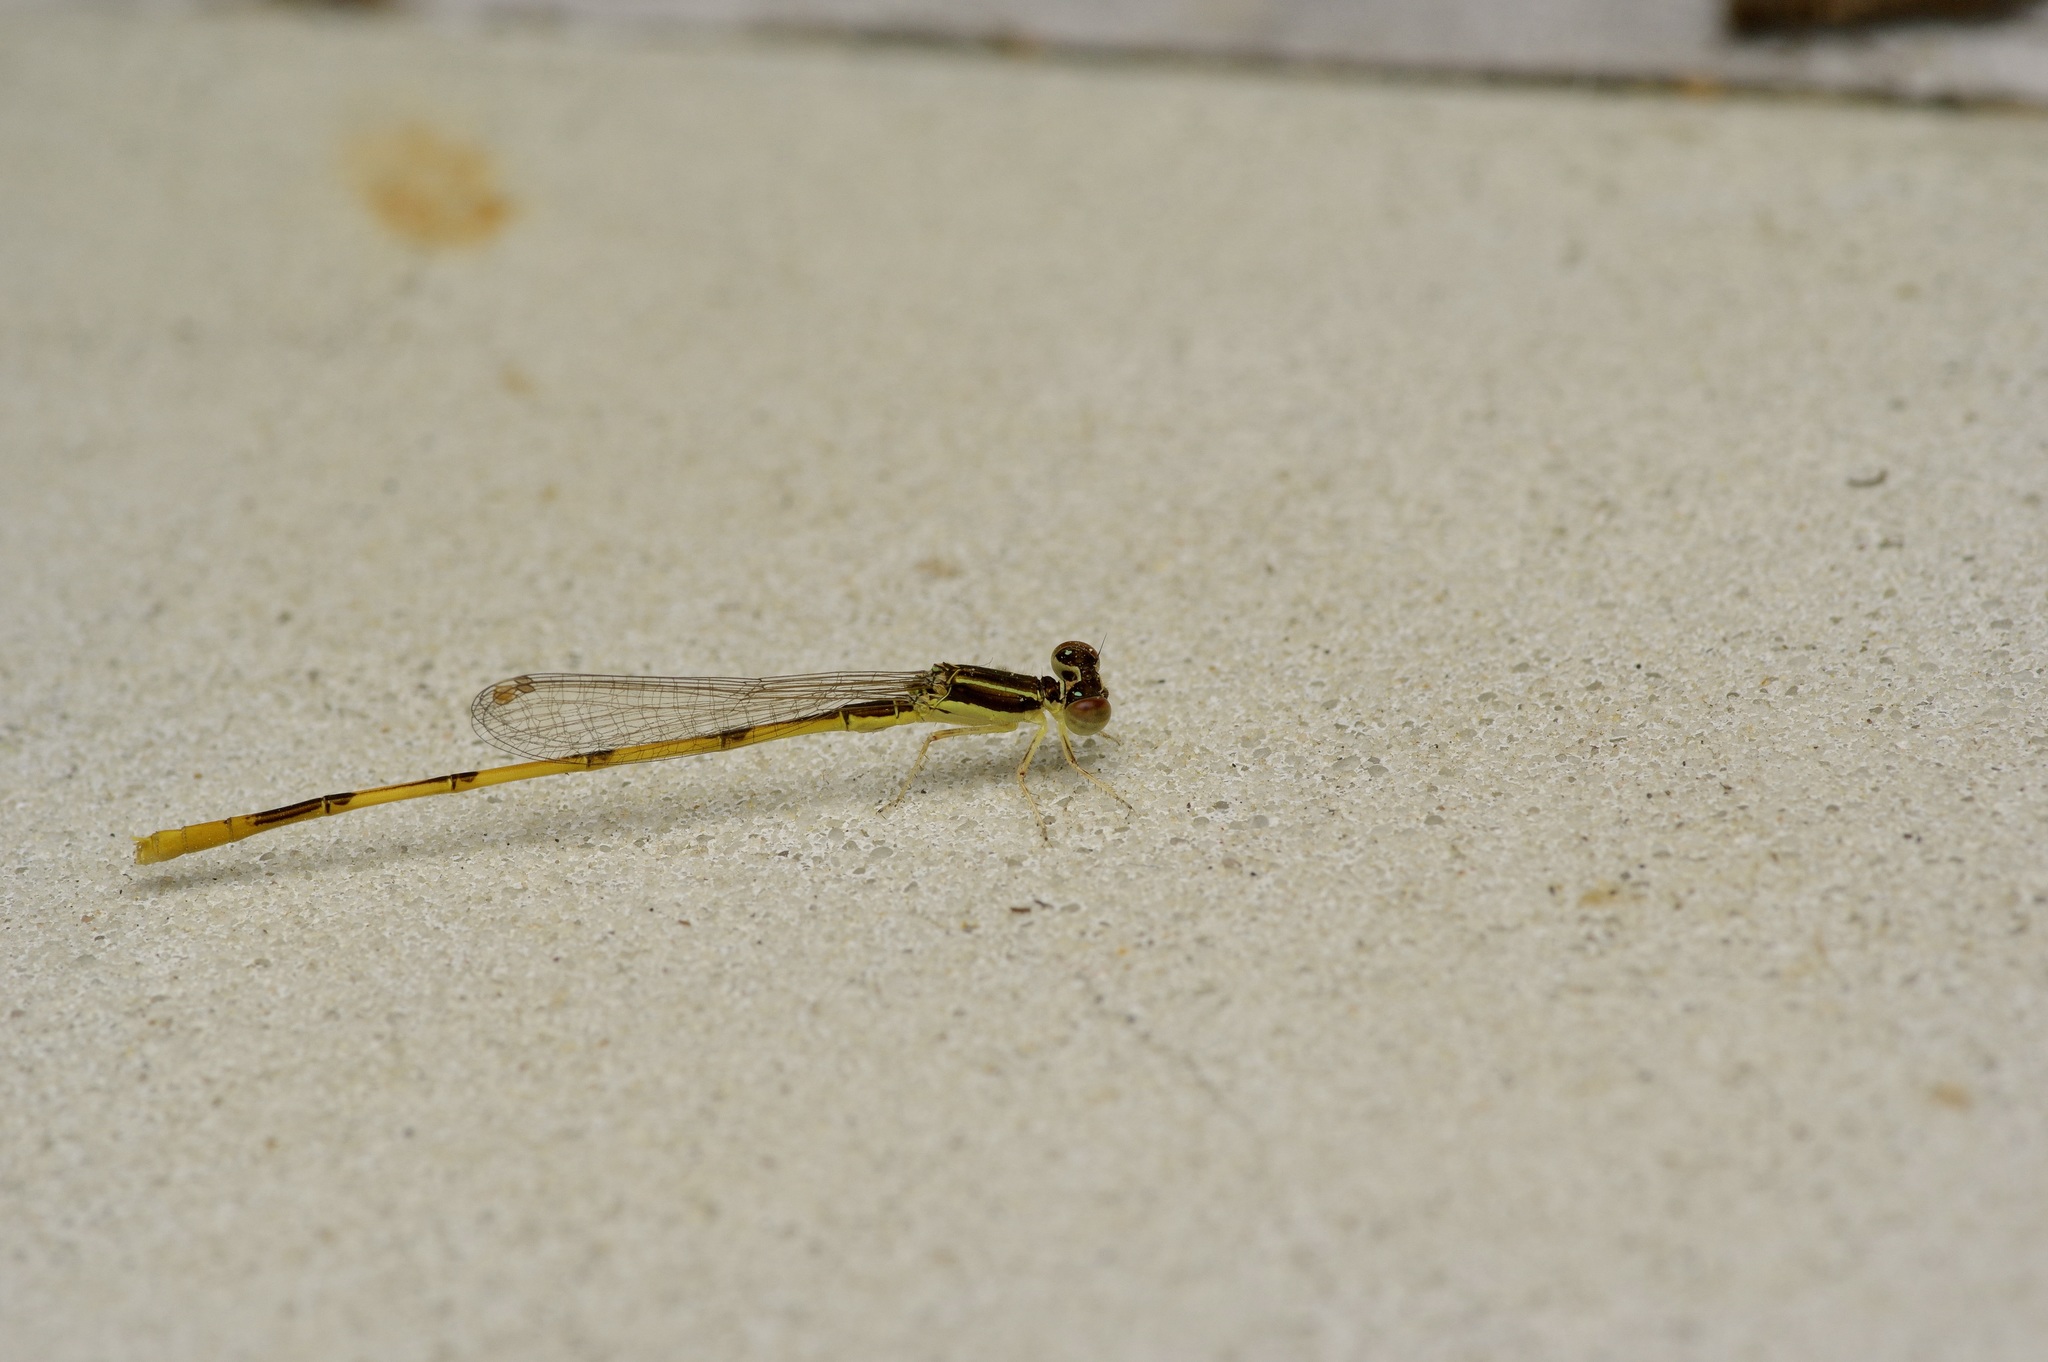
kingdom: Animalia
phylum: Arthropoda
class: Insecta
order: Odonata
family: Coenagrionidae
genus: Ischnura
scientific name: Ischnura hastata
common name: Citrine forktail
